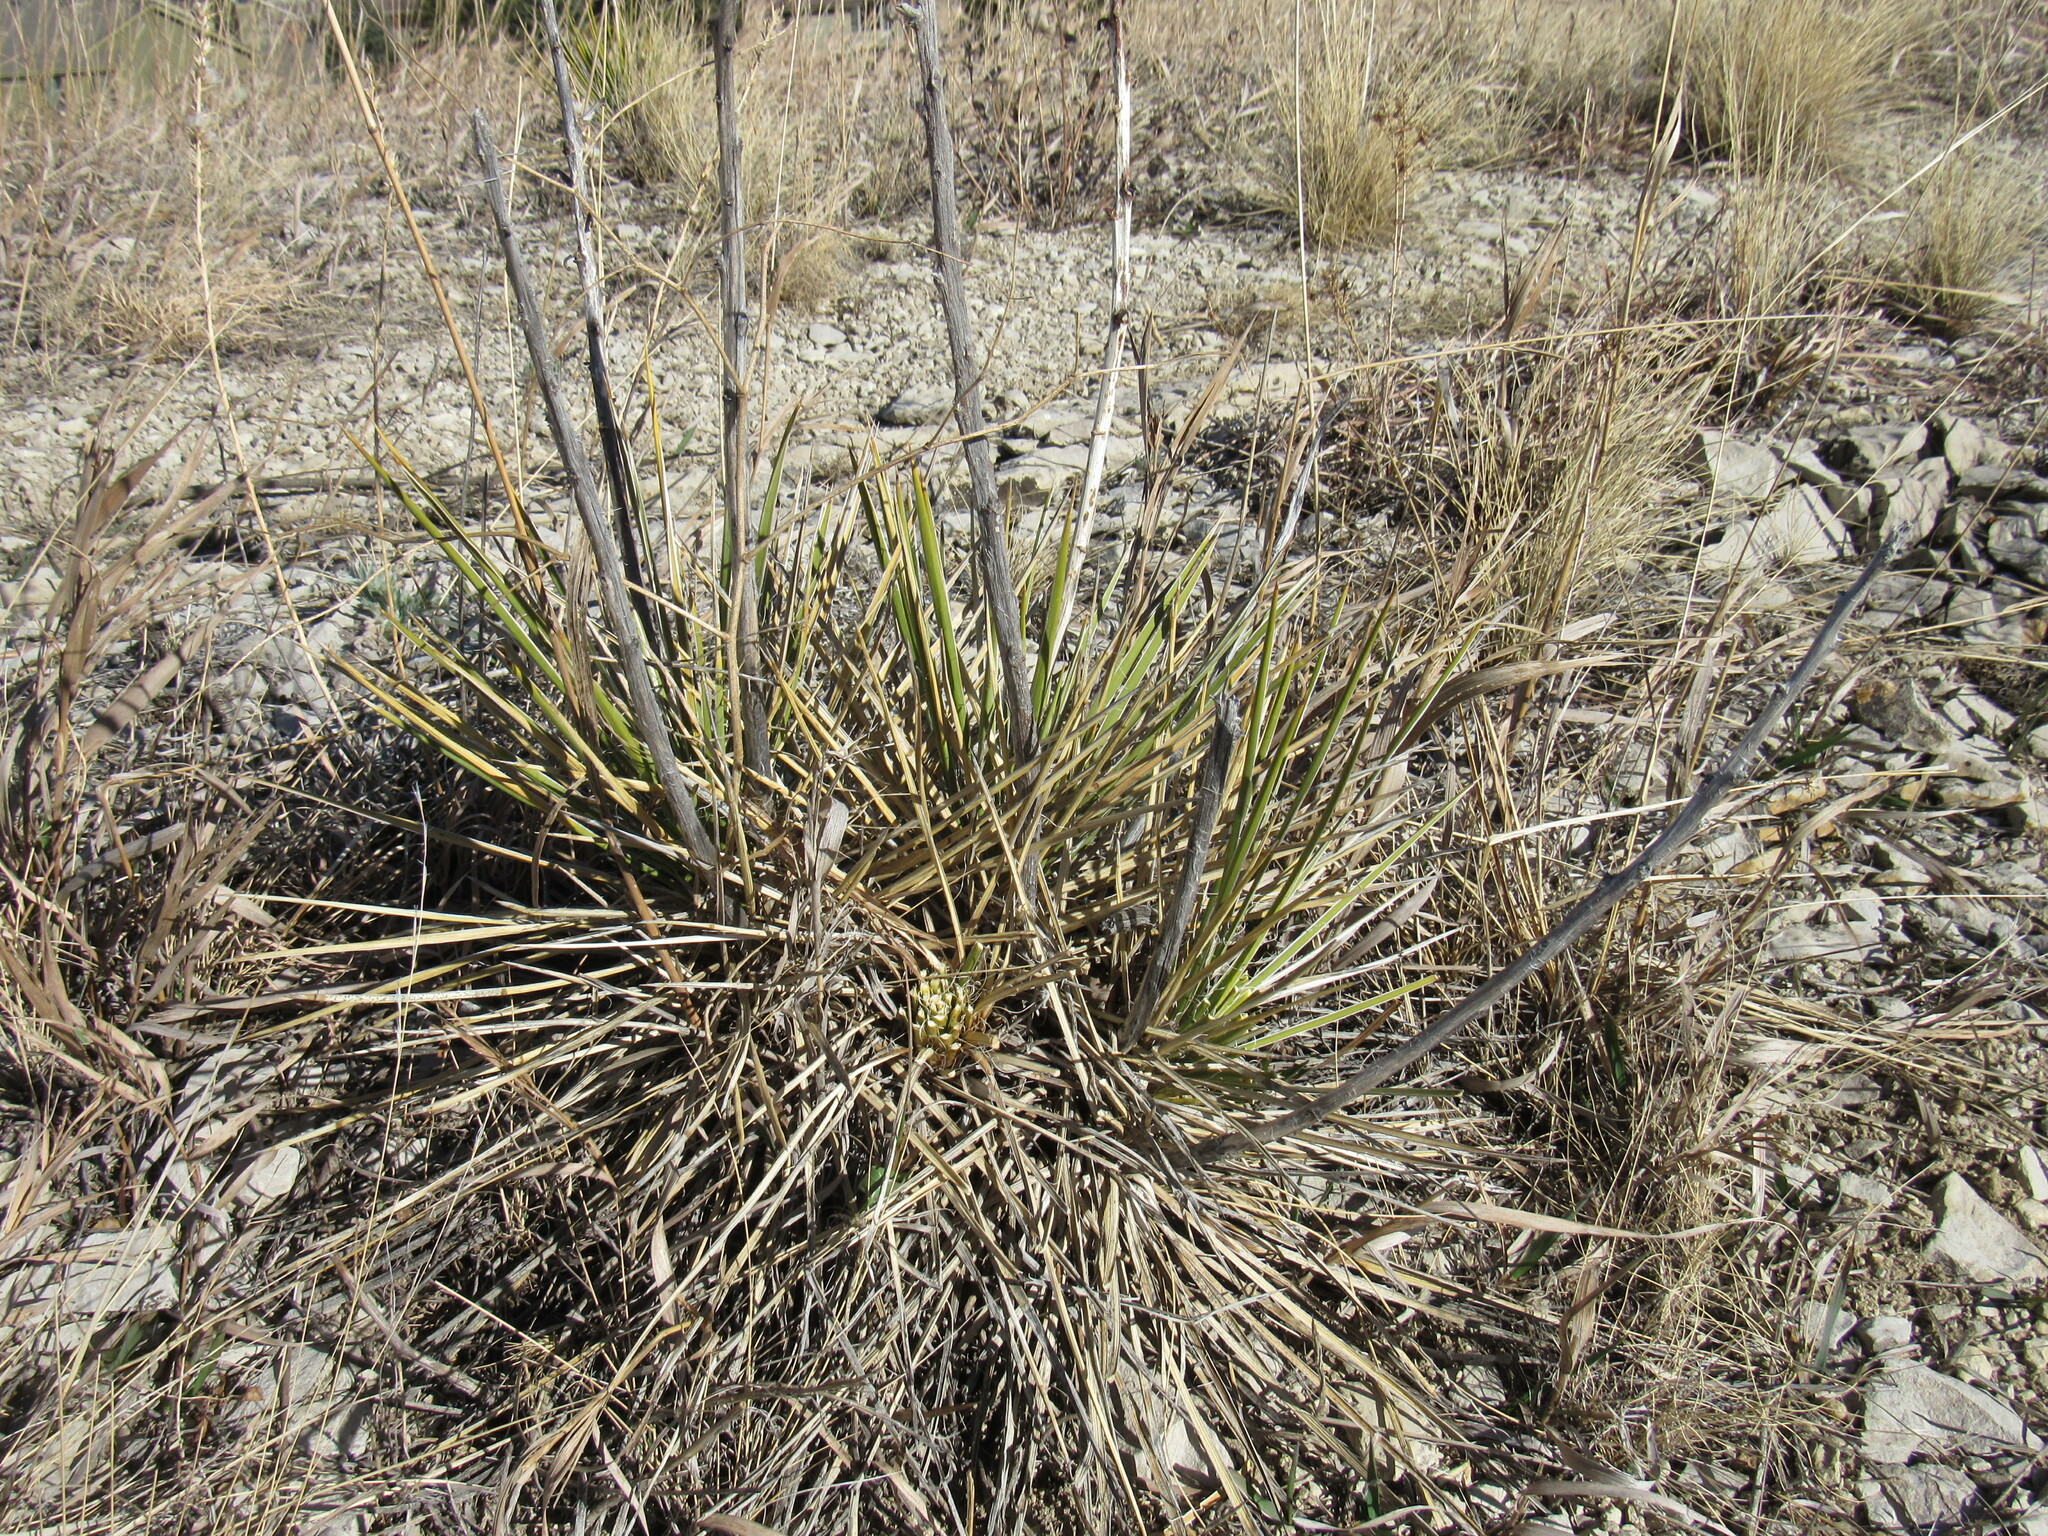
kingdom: Plantae
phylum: Tracheophyta
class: Liliopsida
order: Asparagales
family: Asparagaceae
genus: Yucca
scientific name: Yucca glauca
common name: Great plains yucca
